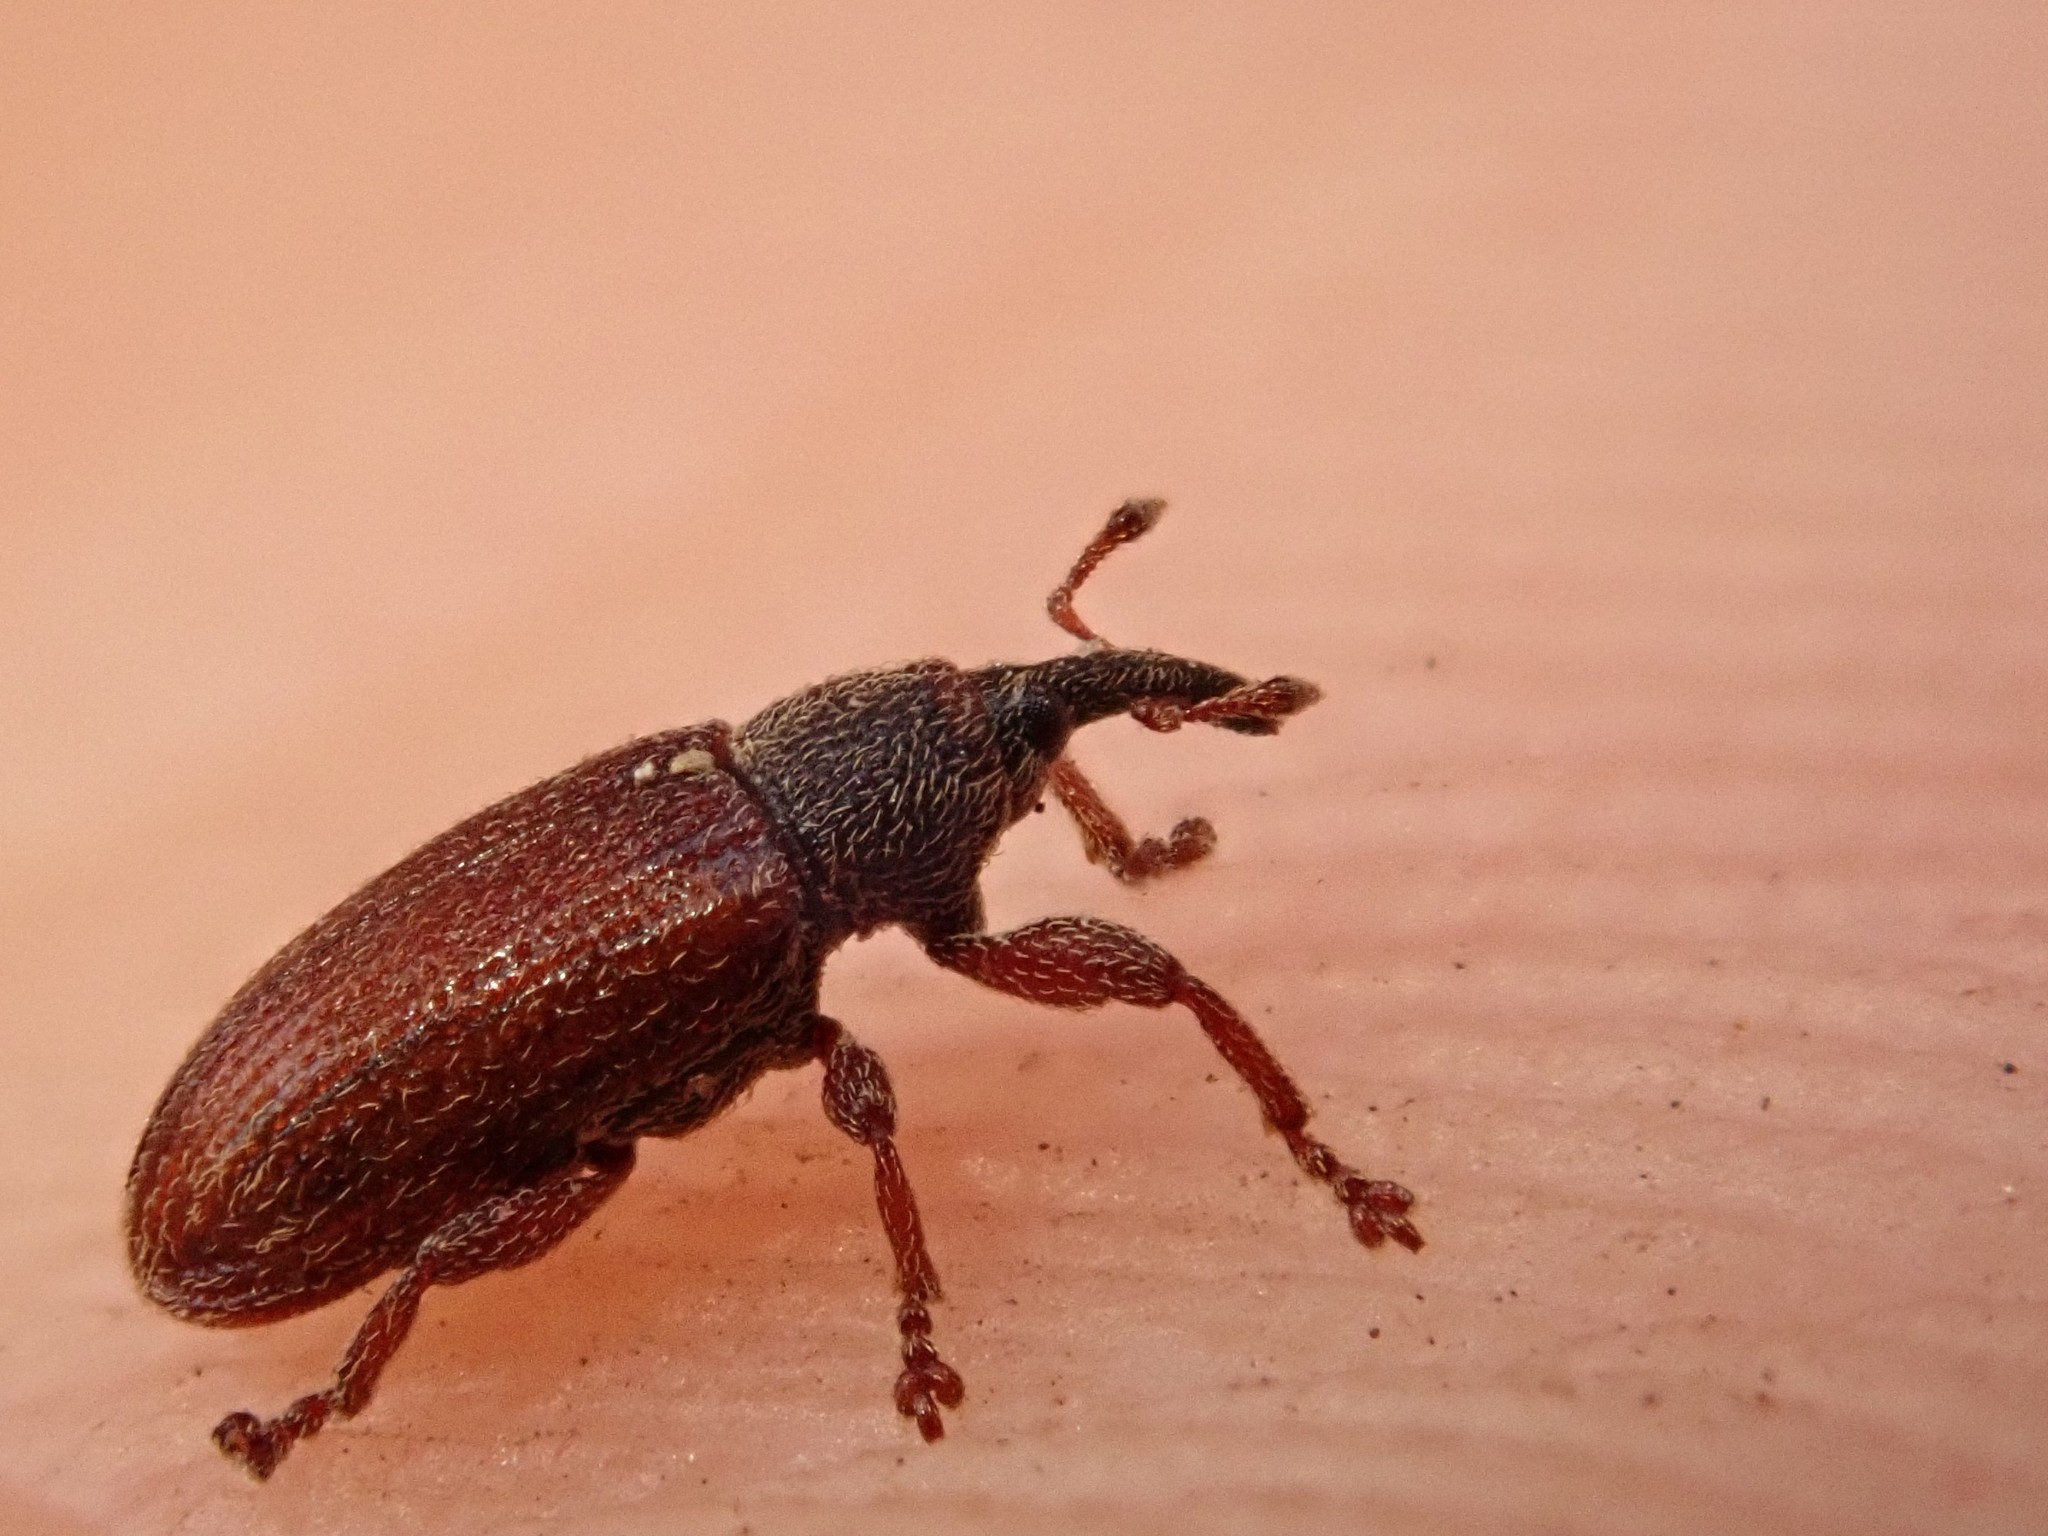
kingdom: Animalia
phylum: Arthropoda
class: Insecta
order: Coleoptera
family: Curculionidae
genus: Bradybatus
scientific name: Bradybatus kellneri
